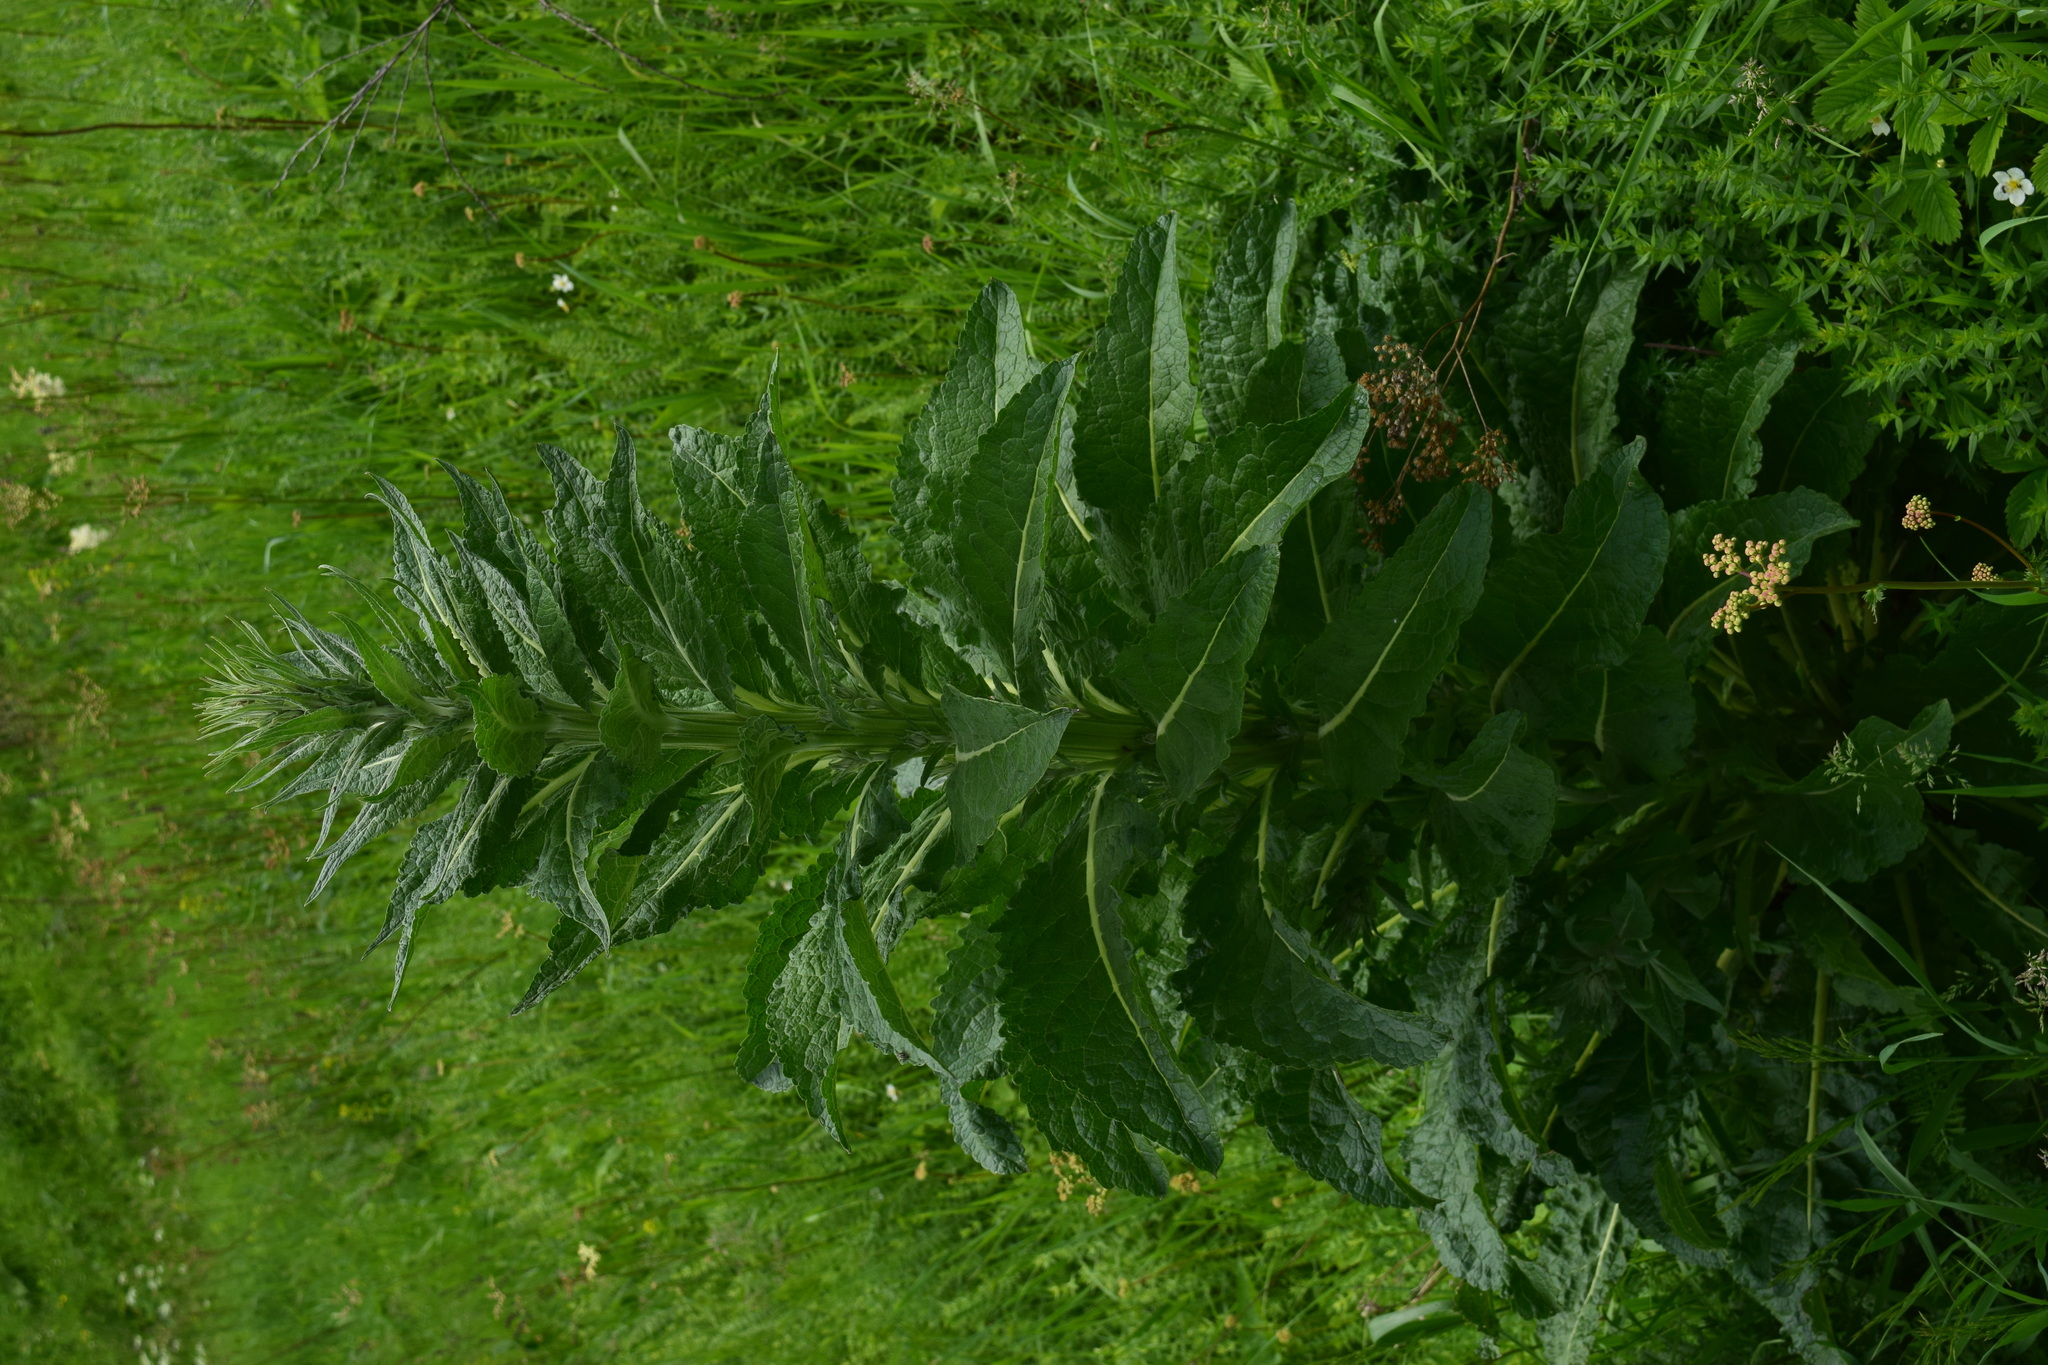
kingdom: Plantae
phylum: Tracheophyta
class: Magnoliopsida
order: Lamiales
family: Scrophulariaceae
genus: Verbascum
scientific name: Verbascum lychnitis
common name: White mullein
